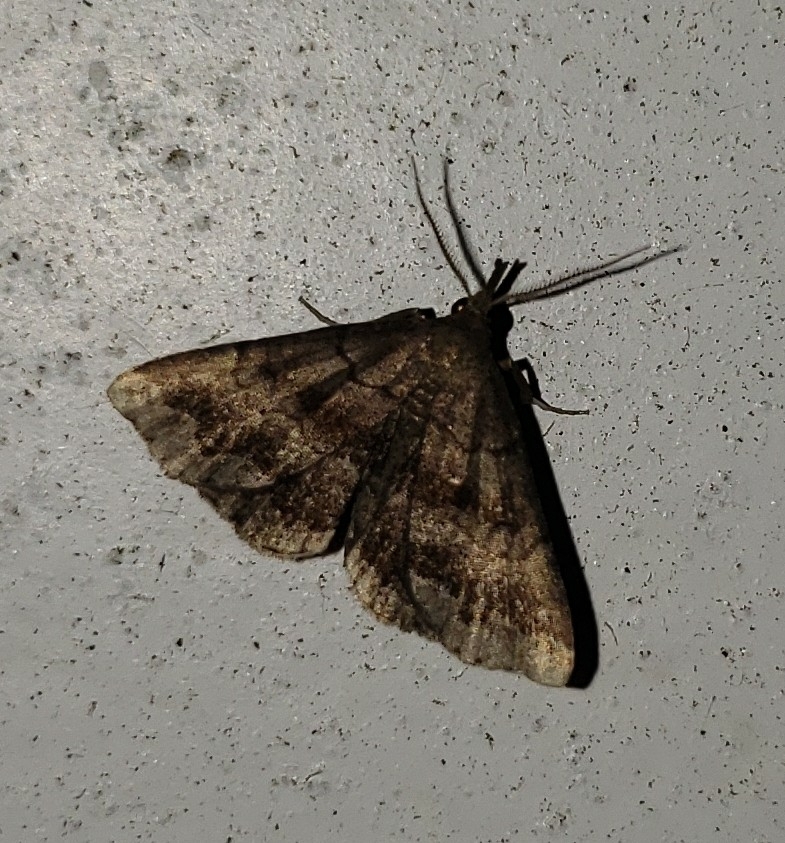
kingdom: Animalia
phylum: Arthropoda
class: Insecta
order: Lepidoptera
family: Erebidae
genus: Phalaenostola
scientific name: Phalaenostola larentioides
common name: Black-banded owlet
